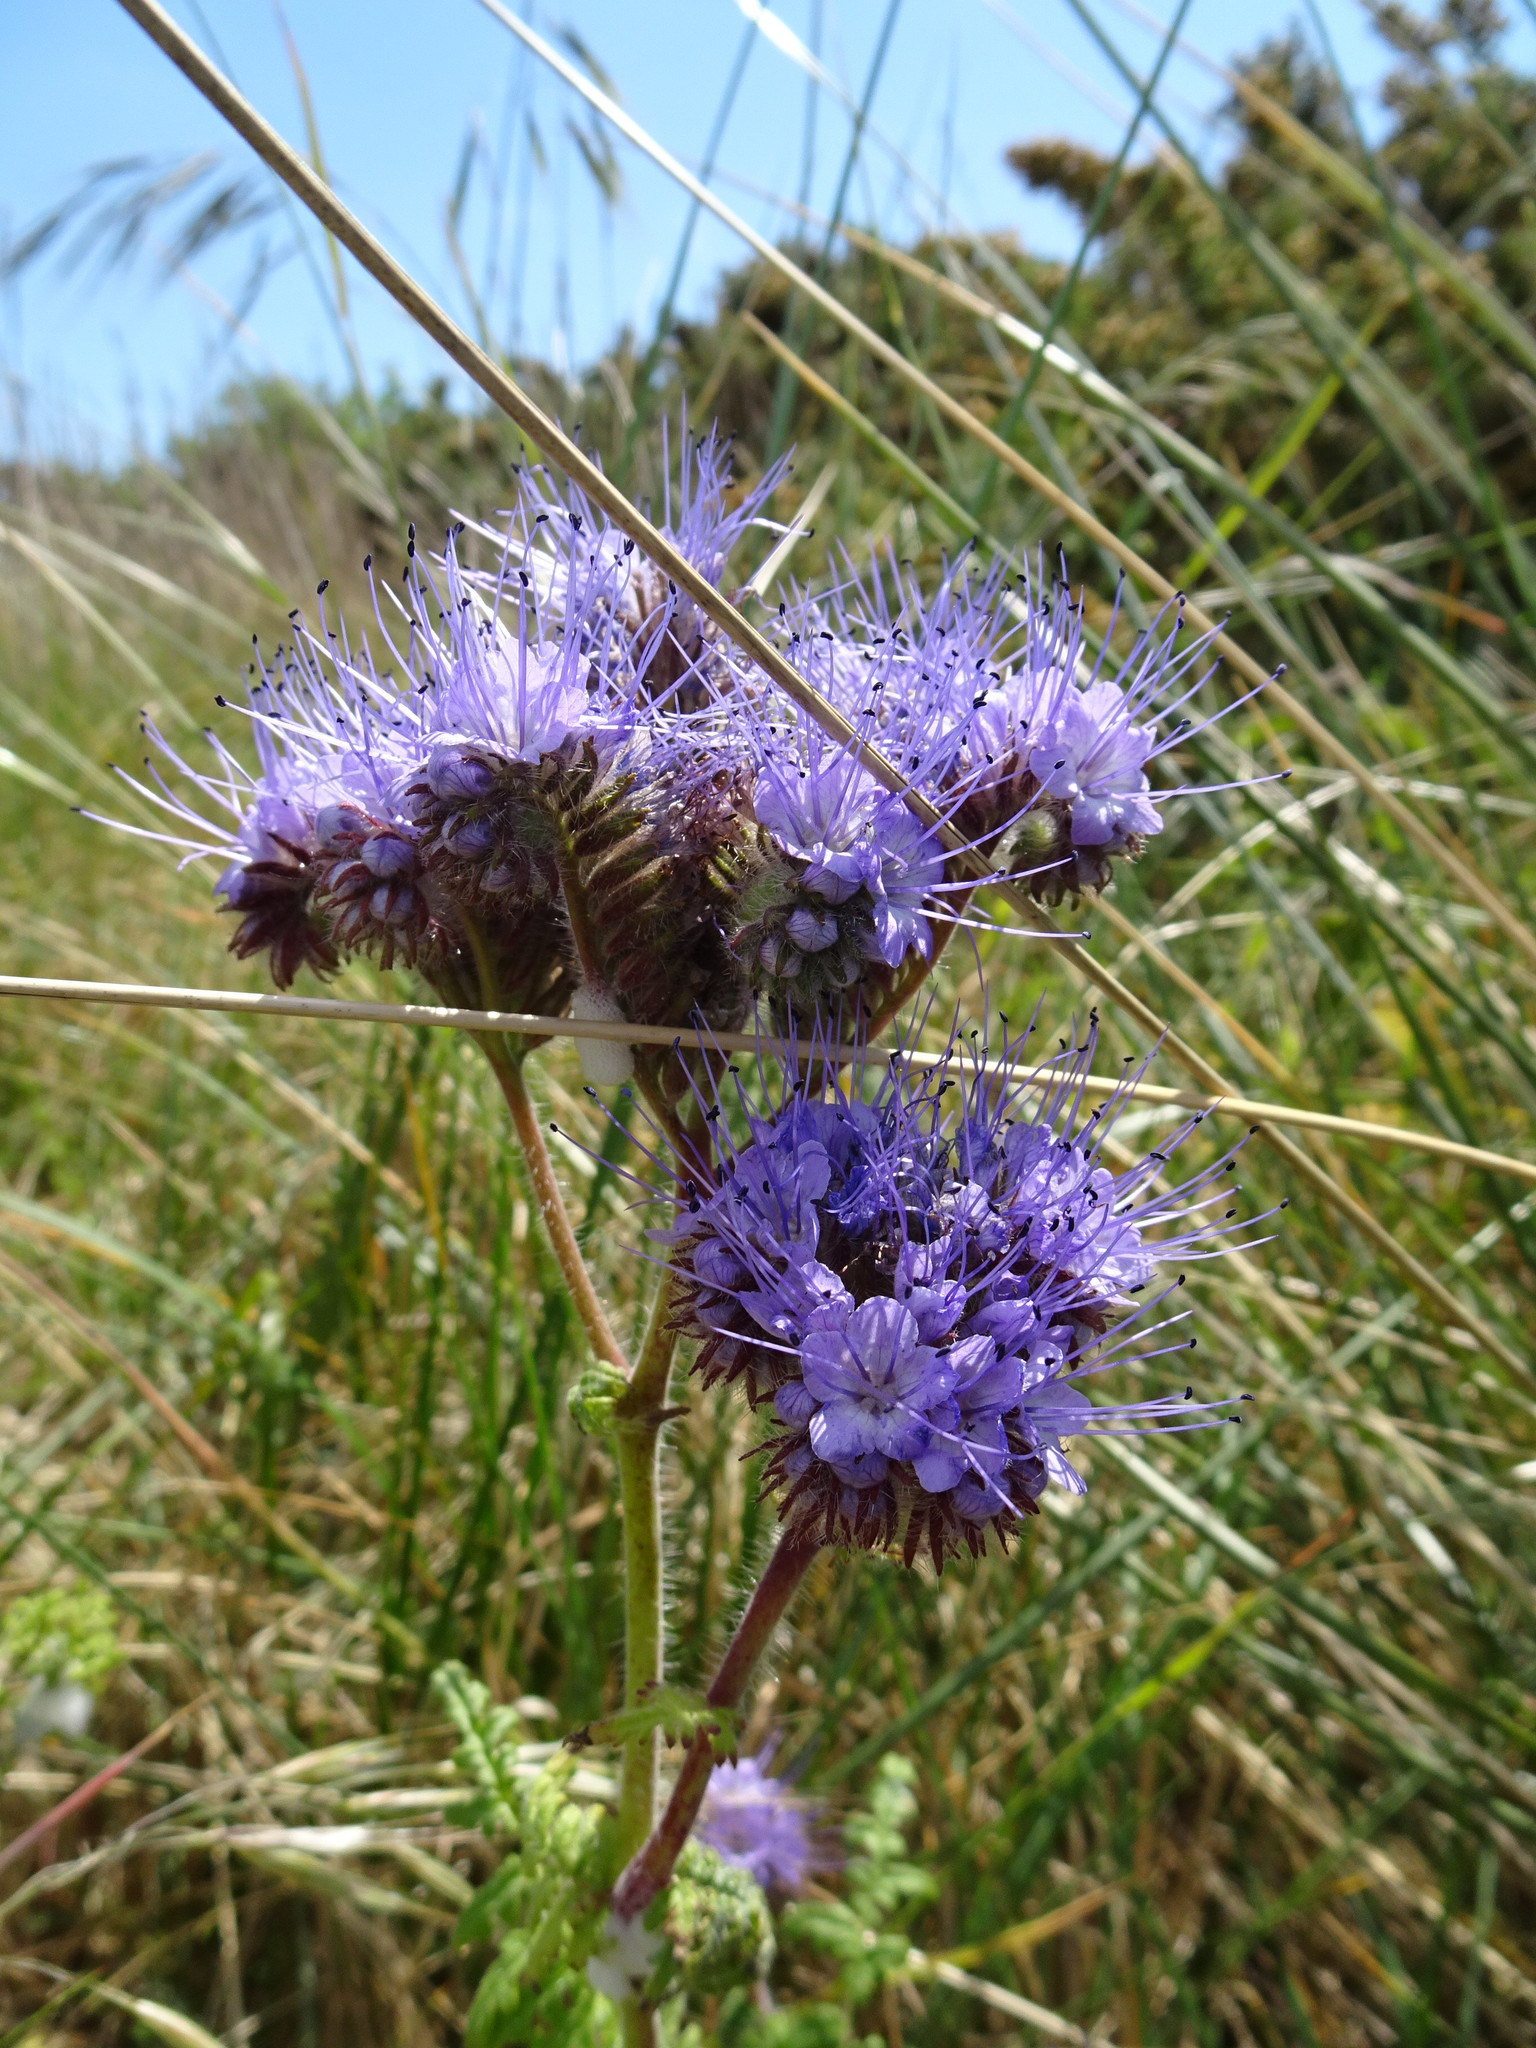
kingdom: Plantae
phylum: Tracheophyta
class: Magnoliopsida
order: Boraginales
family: Hydrophyllaceae
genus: Phacelia
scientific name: Phacelia tanacetifolia
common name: Phacelia
